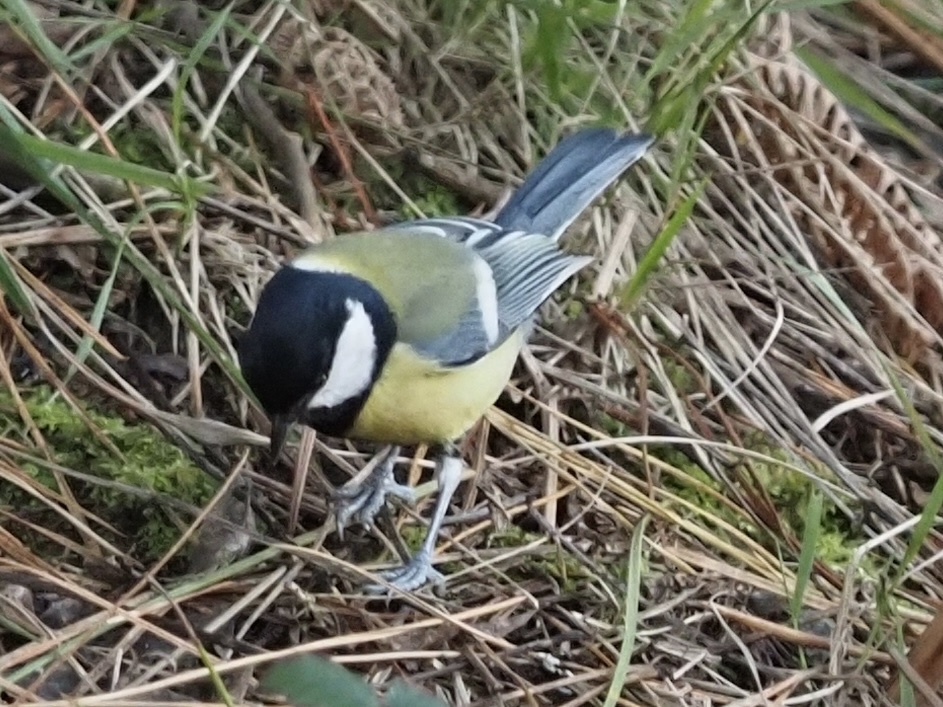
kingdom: Animalia
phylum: Chordata
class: Aves
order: Passeriformes
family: Paridae
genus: Parus
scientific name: Parus major
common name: Great tit
